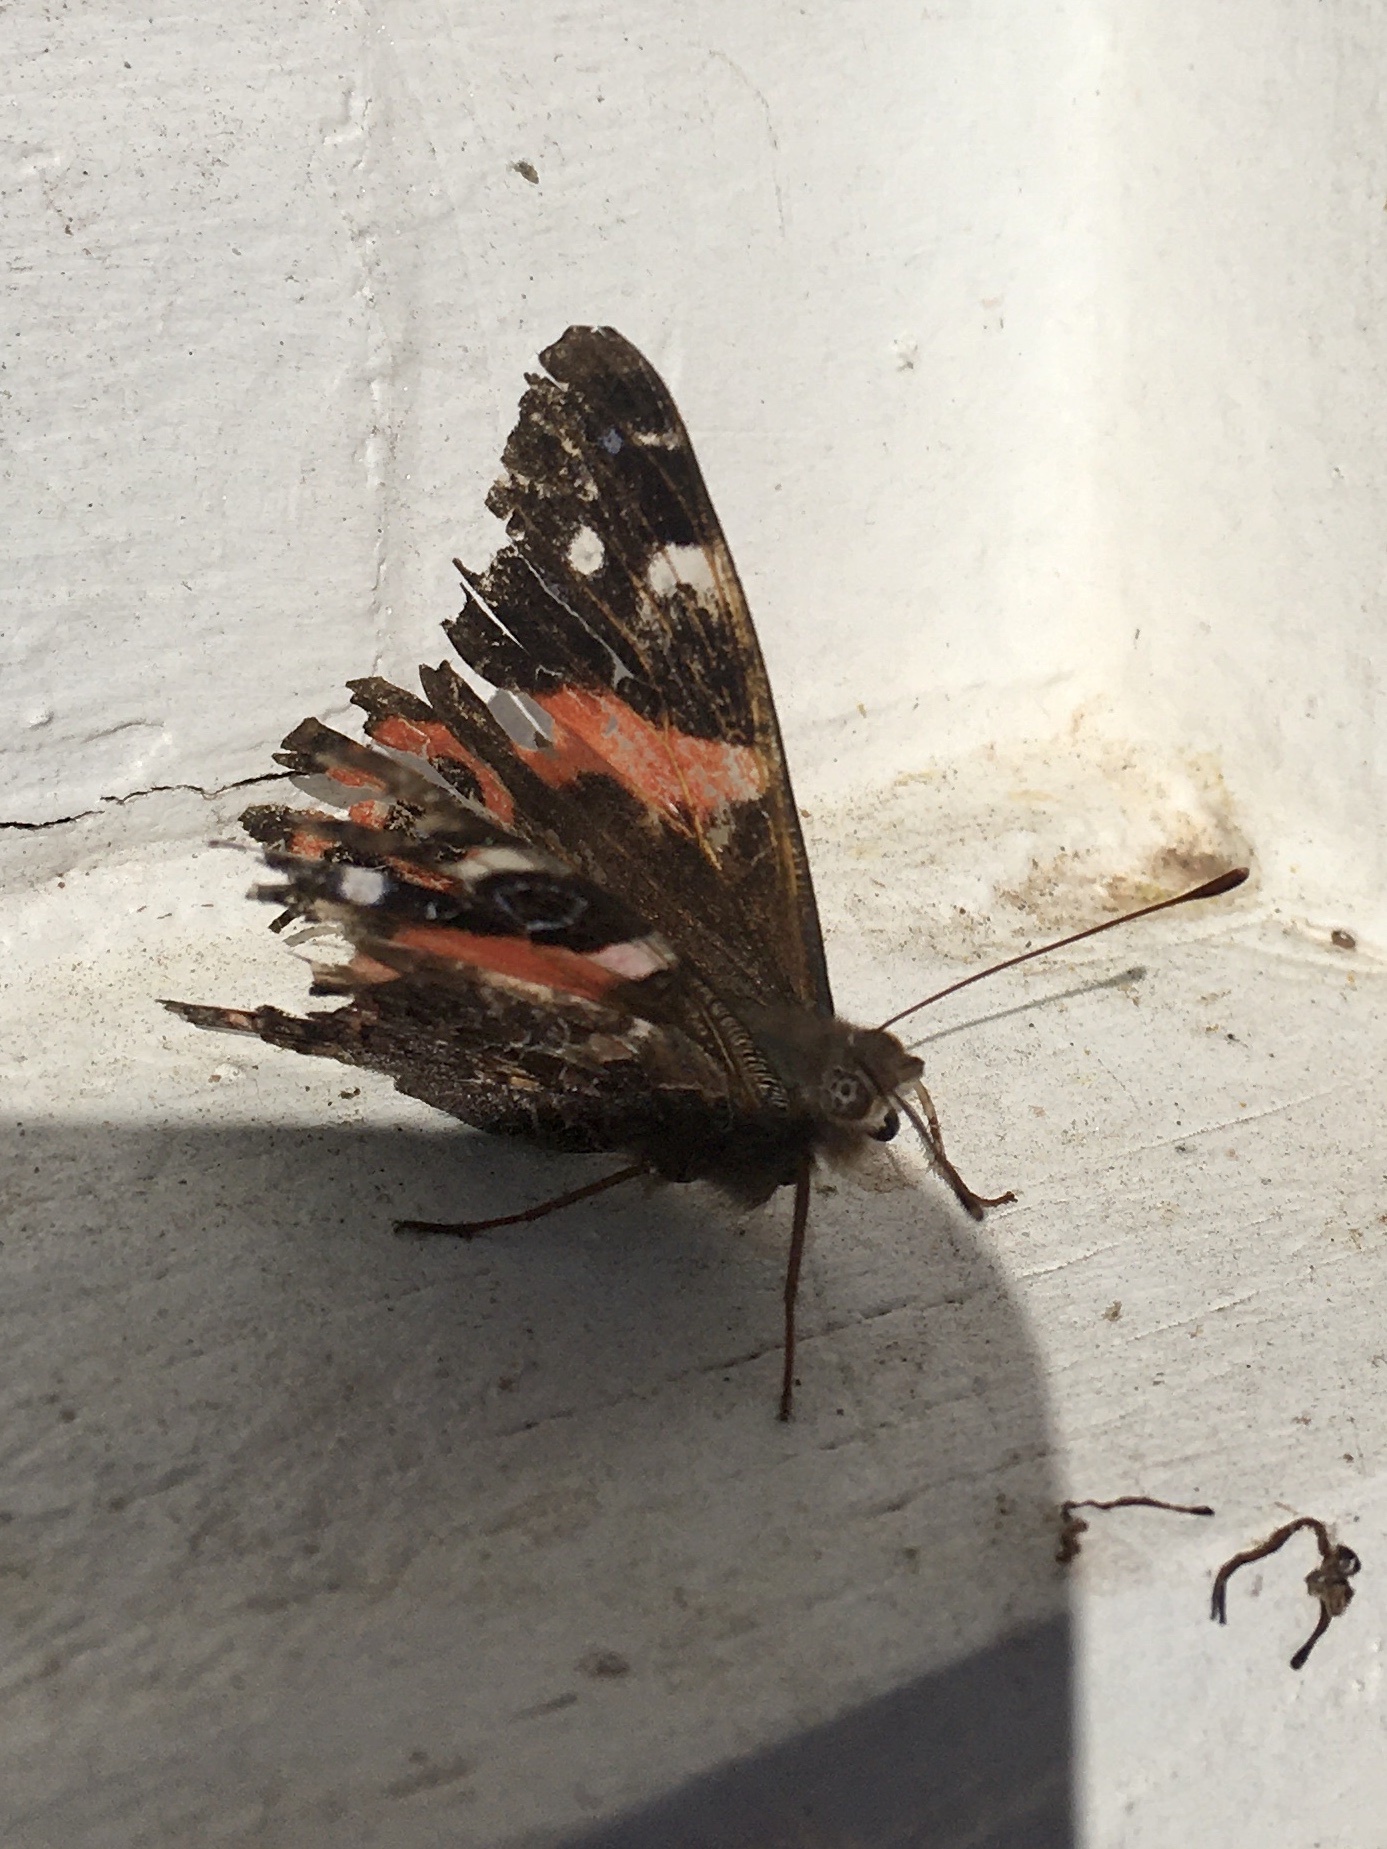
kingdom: Animalia
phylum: Arthropoda
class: Insecta
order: Lepidoptera
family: Nymphalidae
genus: Vanessa
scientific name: Vanessa gonerilla
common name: New zealand red admiral
